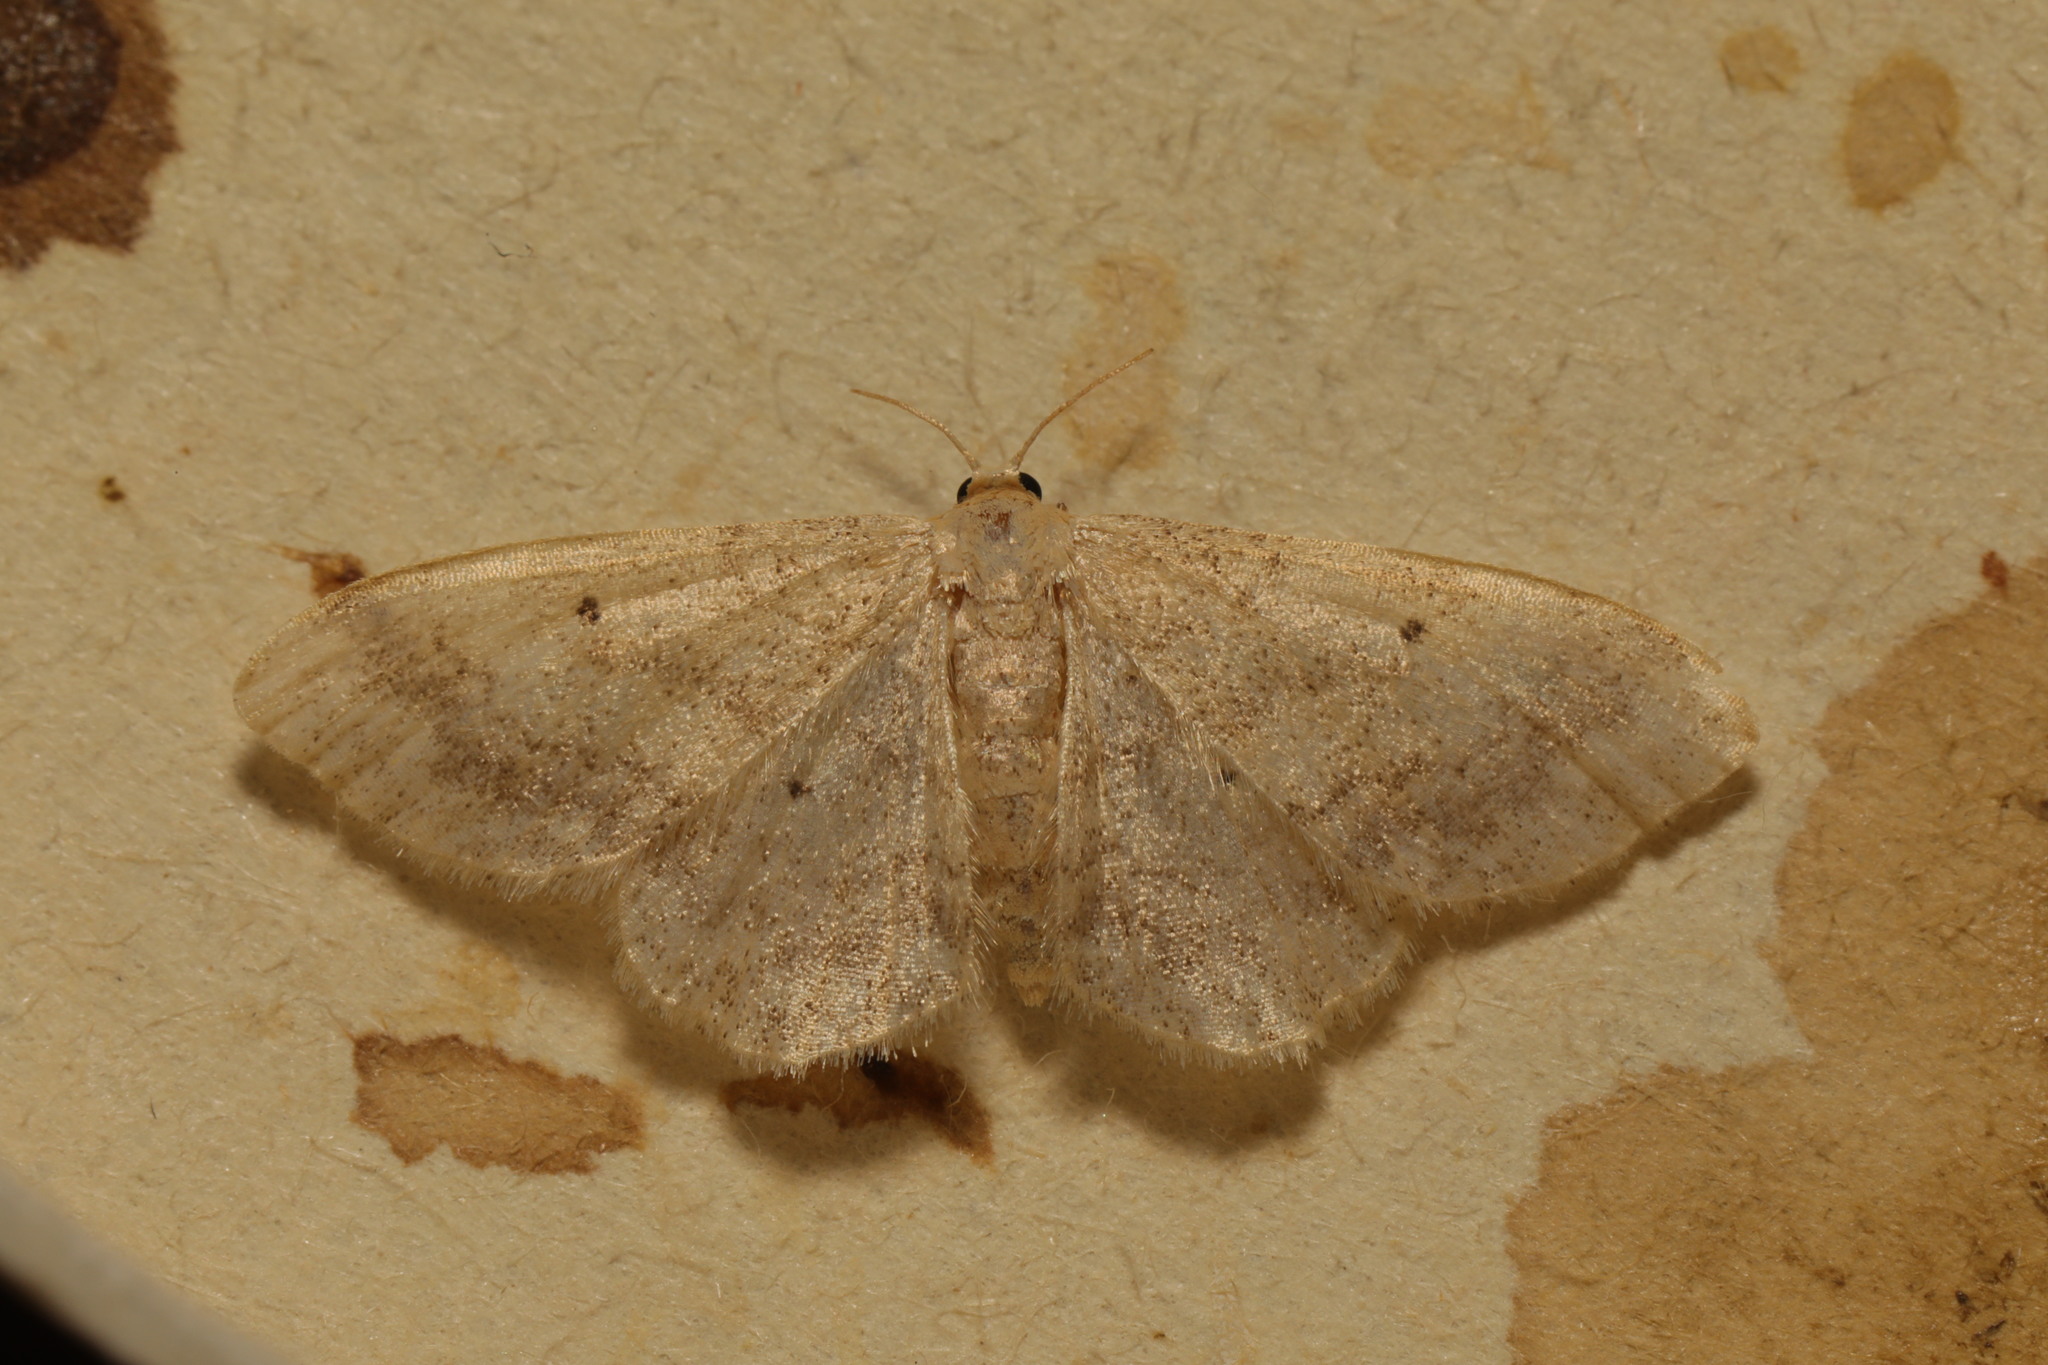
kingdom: Animalia
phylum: Arthropoda
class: Insecta
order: Lepidoptera
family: Geometridae
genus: Idaea
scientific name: Idaea biselata
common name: Small fan-footed wave
